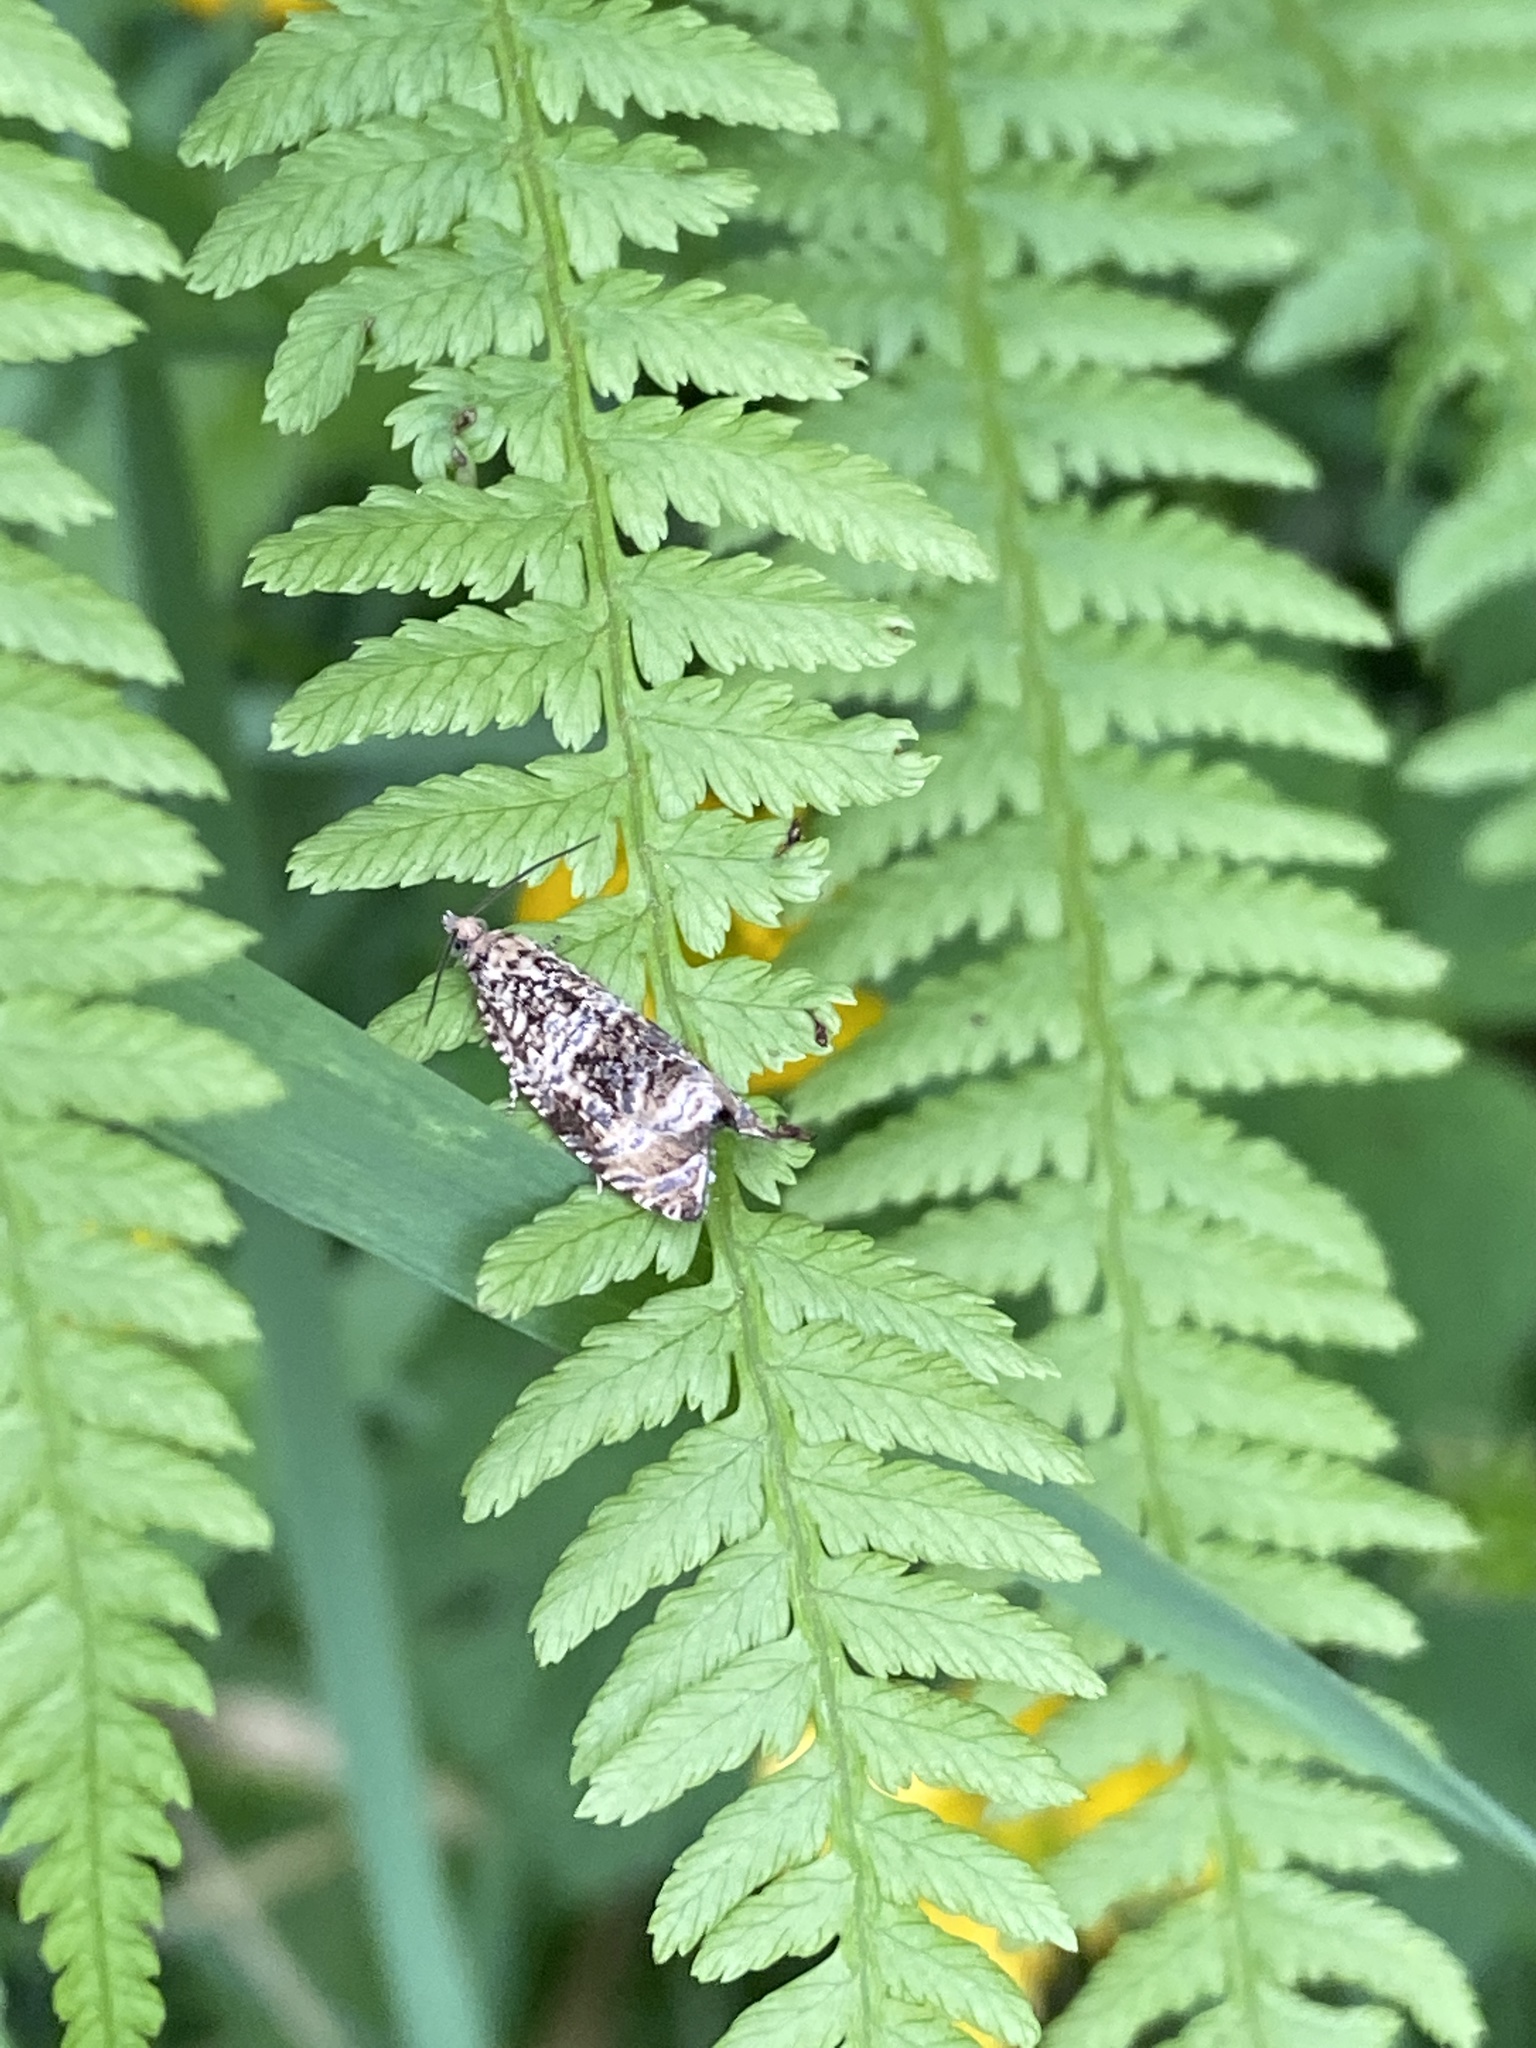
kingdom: Animalia
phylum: Arthropoda
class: Insecta
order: Lepidoptera
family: Tortricidae
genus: Syricoris
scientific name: Syricoris lacunana
